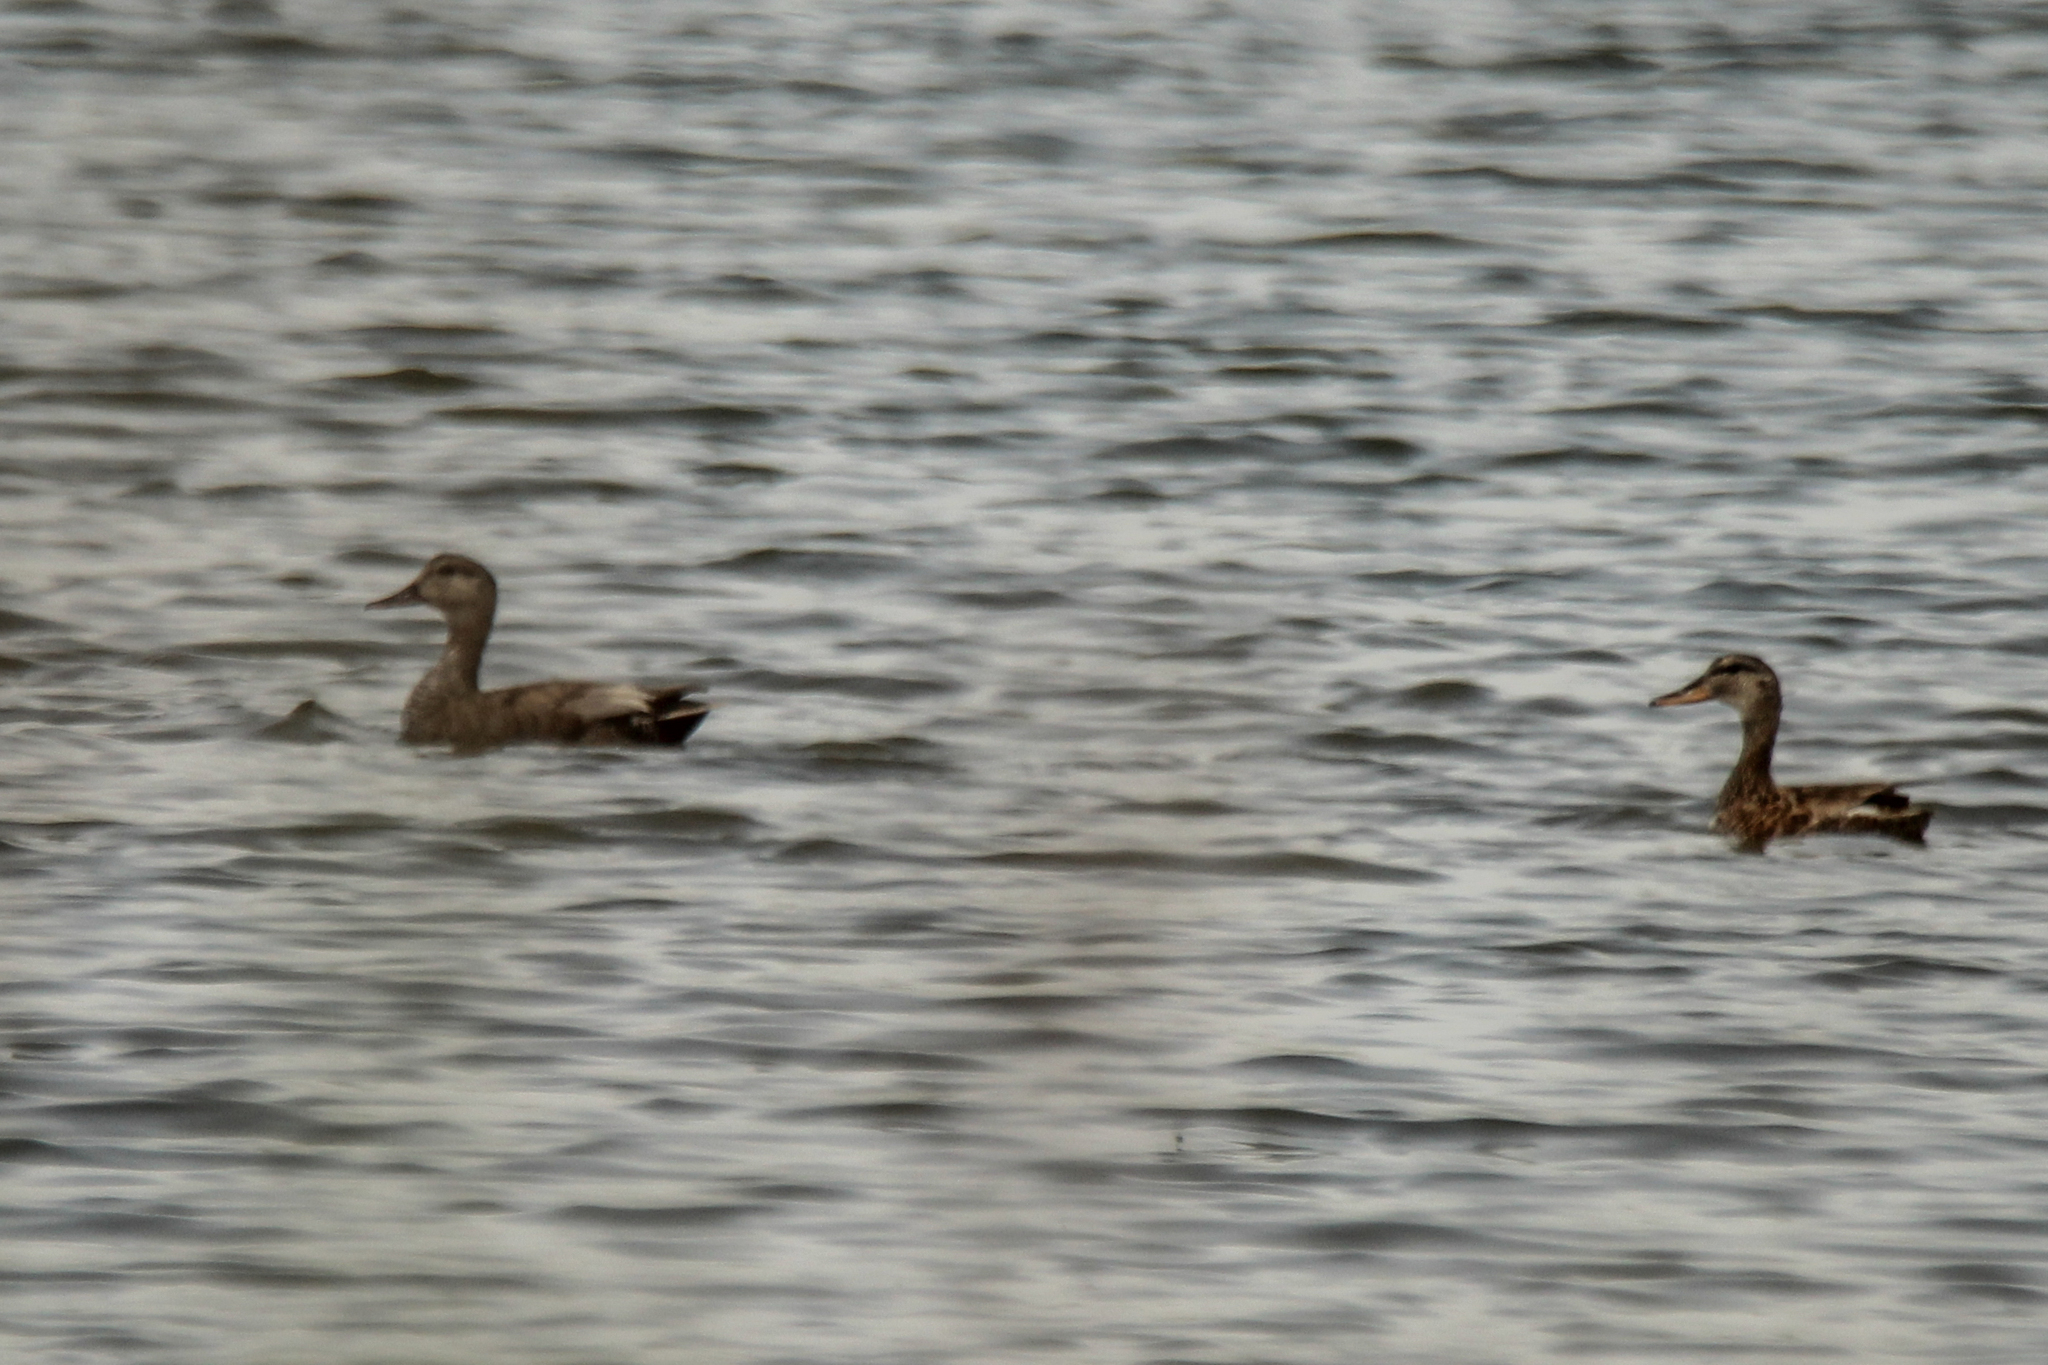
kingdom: Animalia
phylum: Chordata
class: Aves
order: Anseriformes
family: Anatidae
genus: Mareca
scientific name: Mareca strepera
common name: Gadwall
